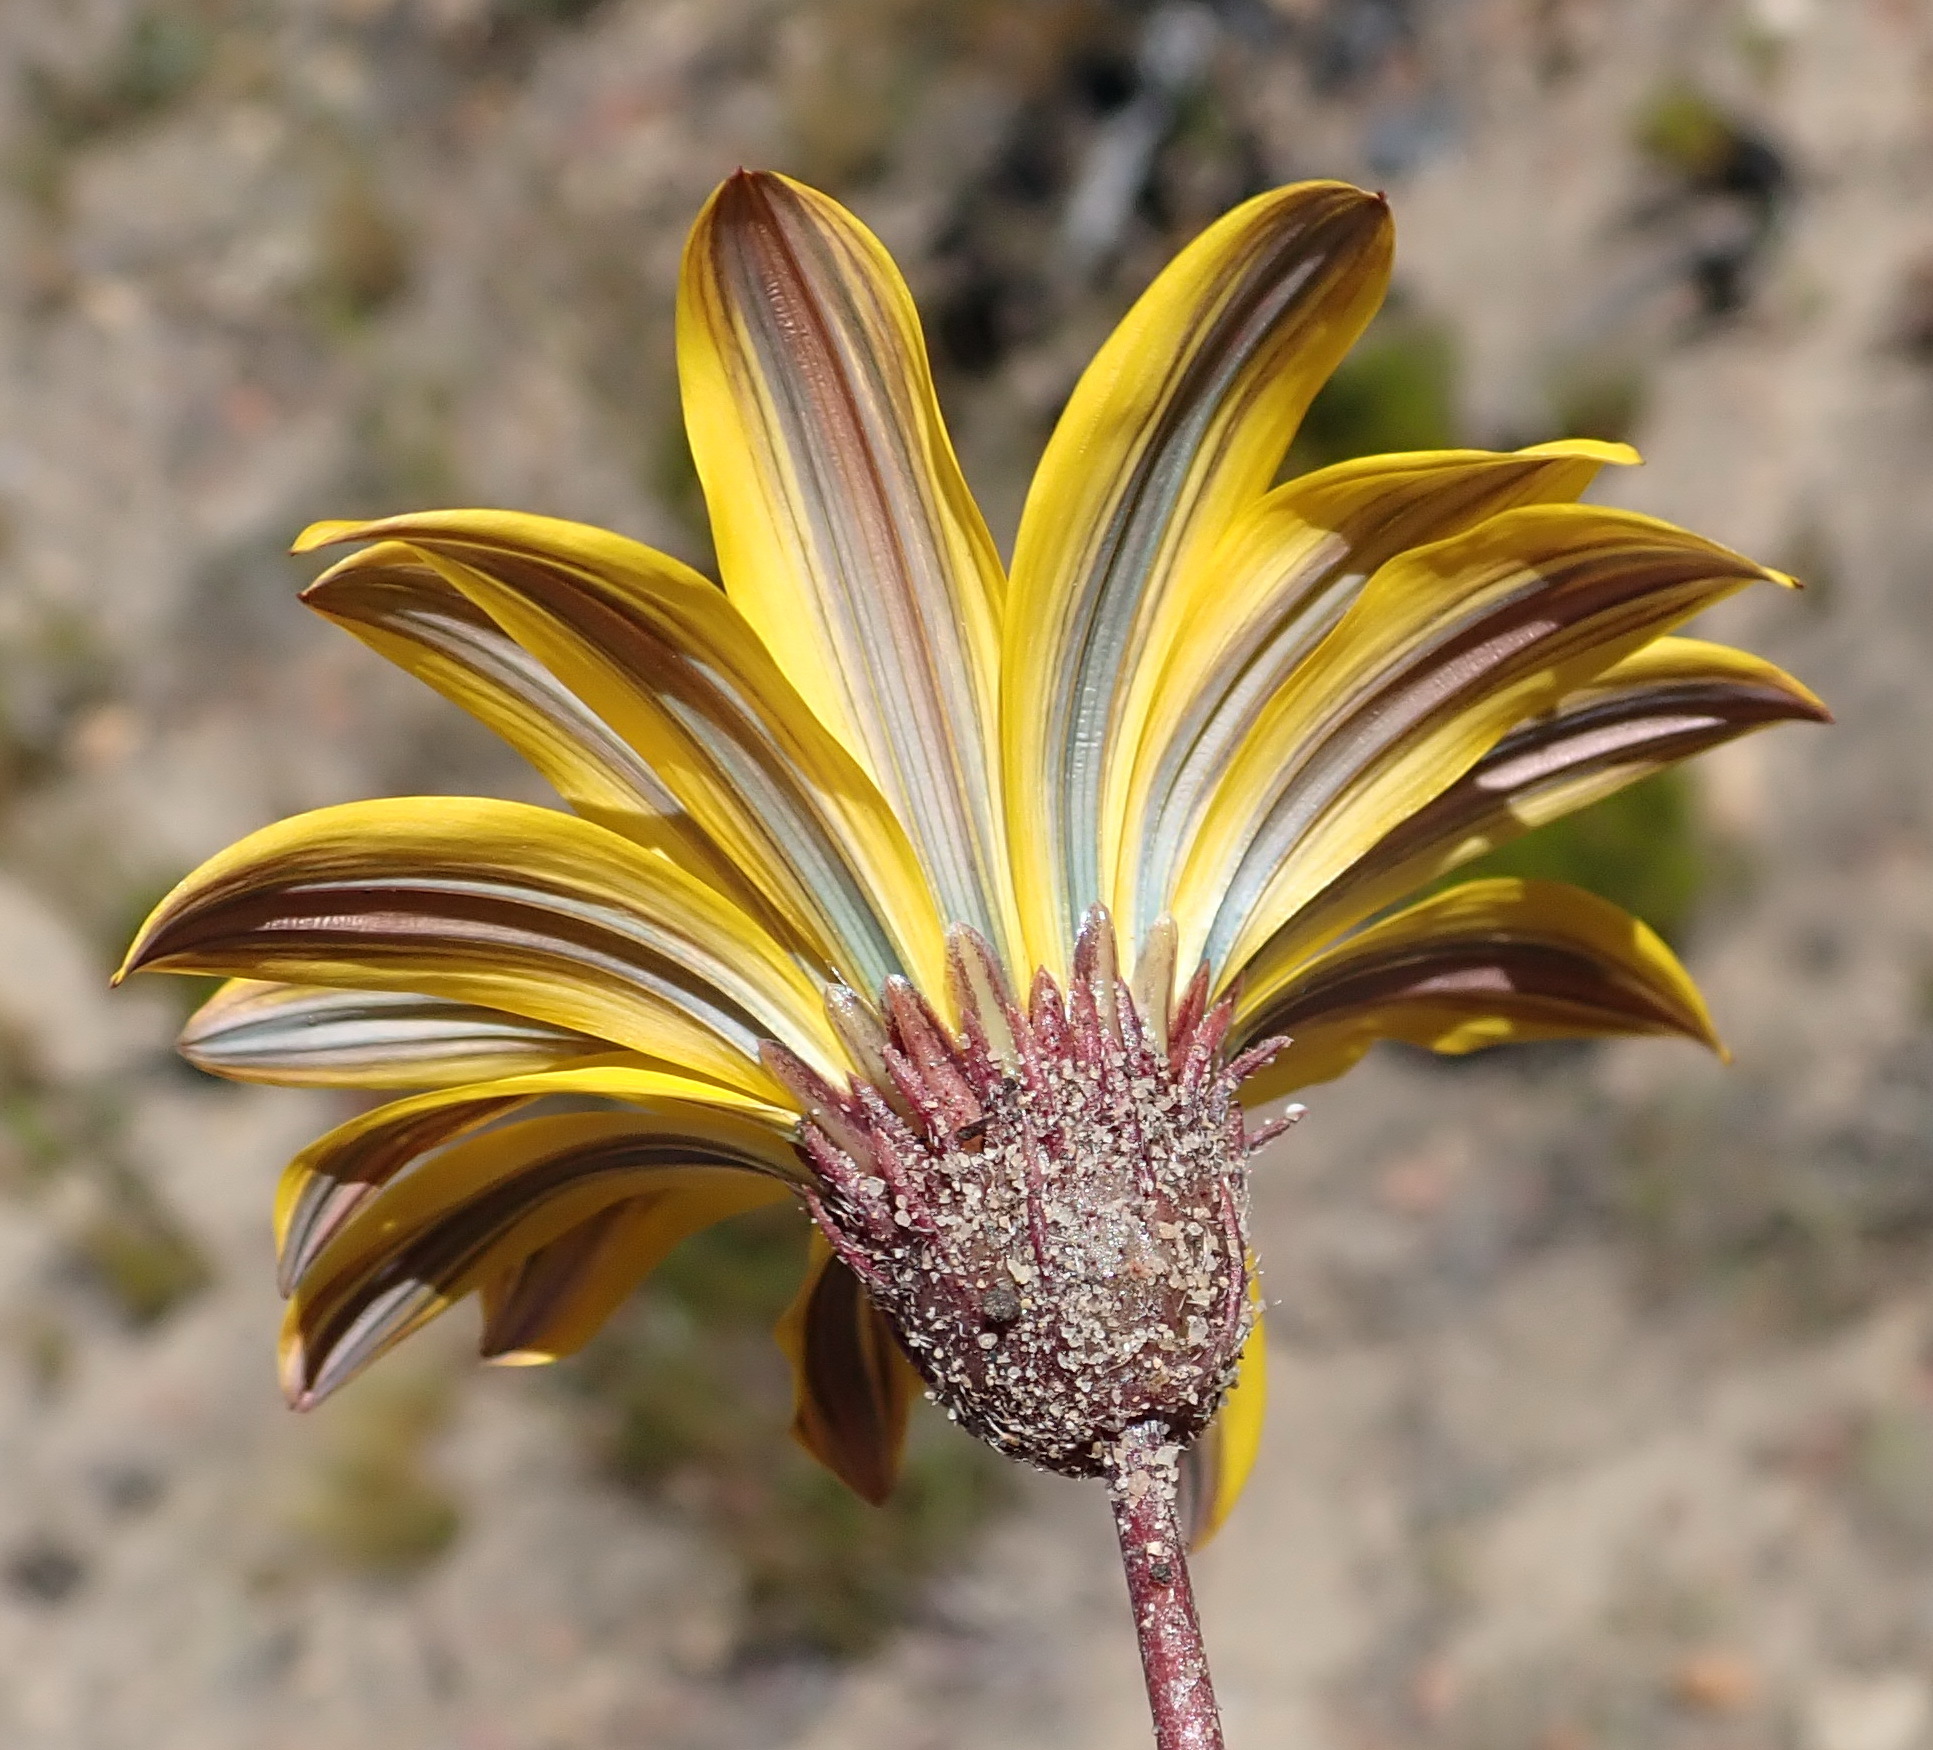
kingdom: Plantae
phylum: Tracheophyta
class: Magnoliopsida
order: Asterales
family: Asteraceae
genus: Gazania
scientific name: Gazania krebsiana
